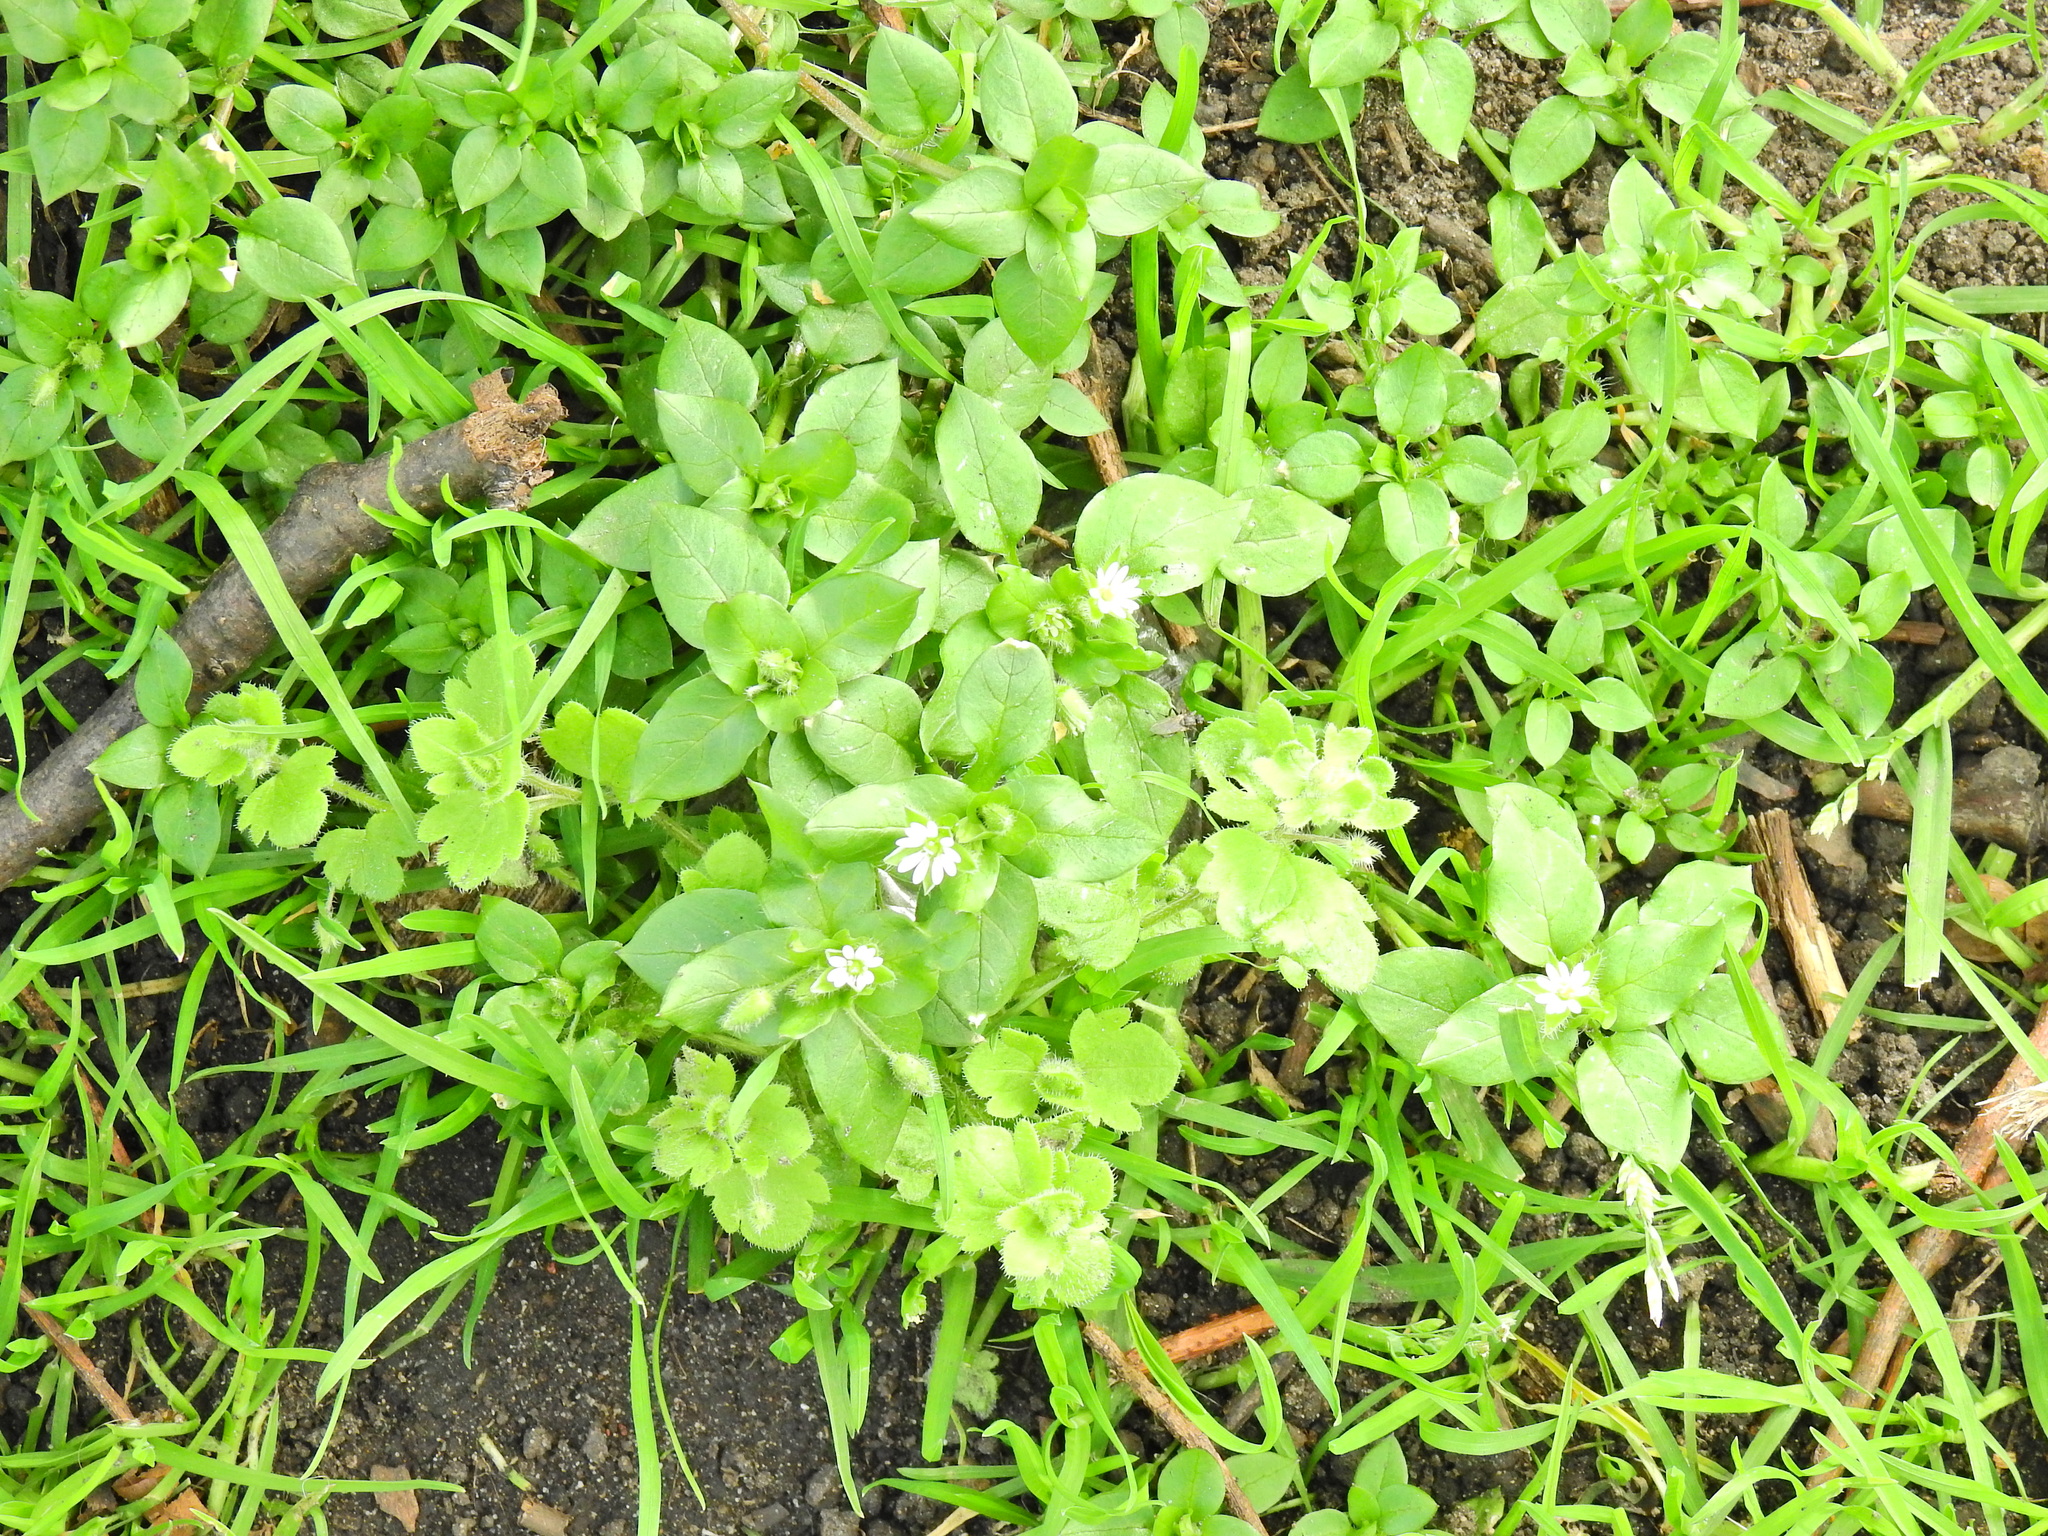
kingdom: Plantae
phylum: Tracheophyta
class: Magnoliopsida
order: Caryophyllales
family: Caryophyllaceae
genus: Stellaria
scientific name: Stellaria media
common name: Common chickweed
